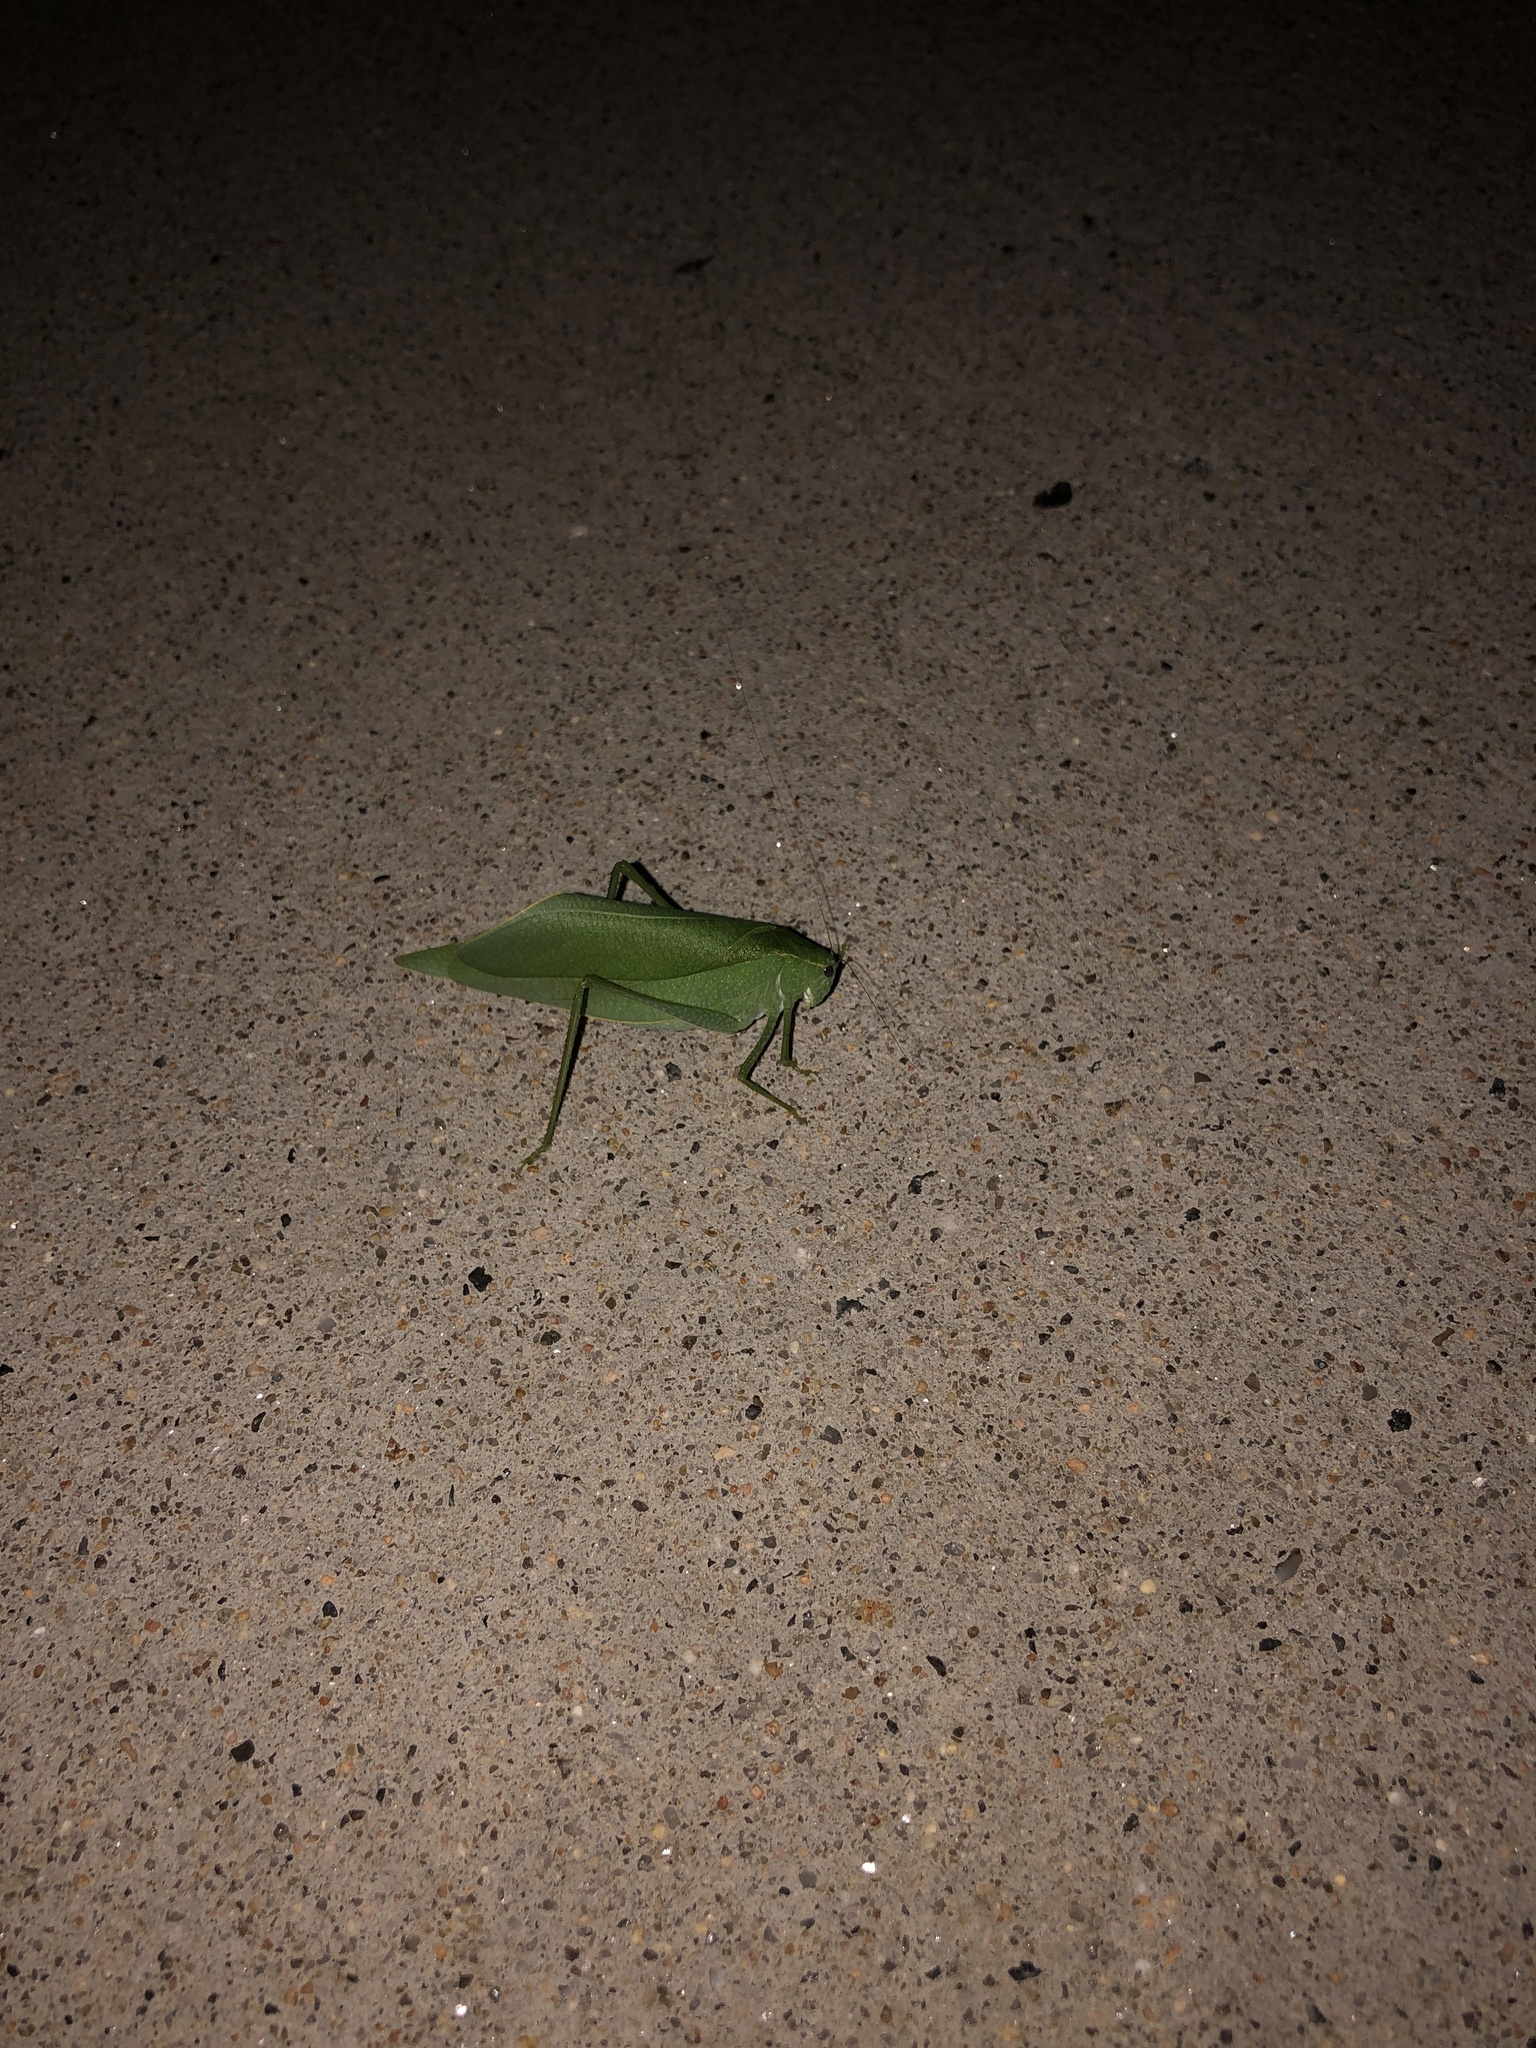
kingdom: Animalia
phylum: Arthropoda
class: Insecta
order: Orthoptera
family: Tettigoniidae
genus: Microcentrum
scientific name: Microcentrum rhombifolium
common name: Broad-winged katydid
